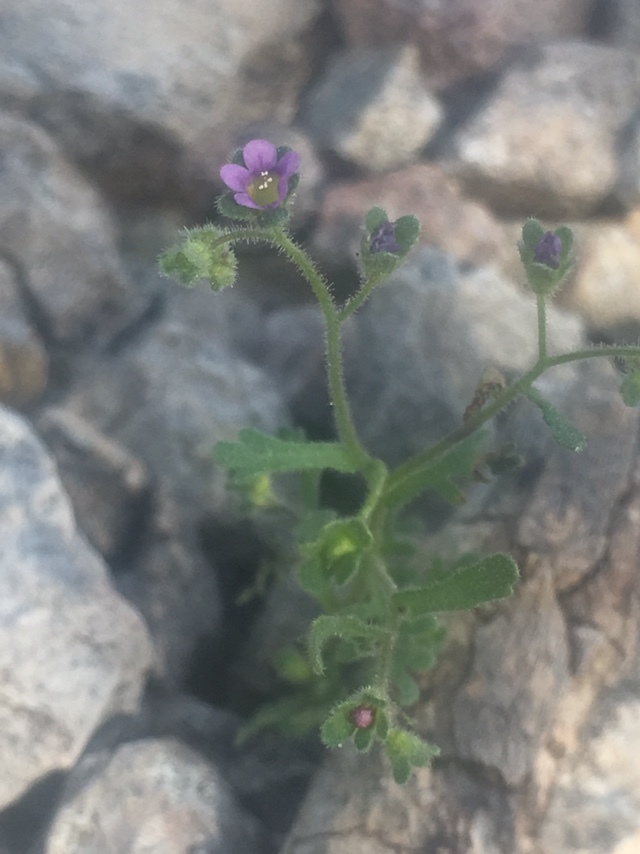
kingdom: Plantae
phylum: Tracheophyta
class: Magnoliopsida
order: Boraginales
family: Hydrophyllaceae
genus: Eucrypta
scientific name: Eucrypta micrantha
